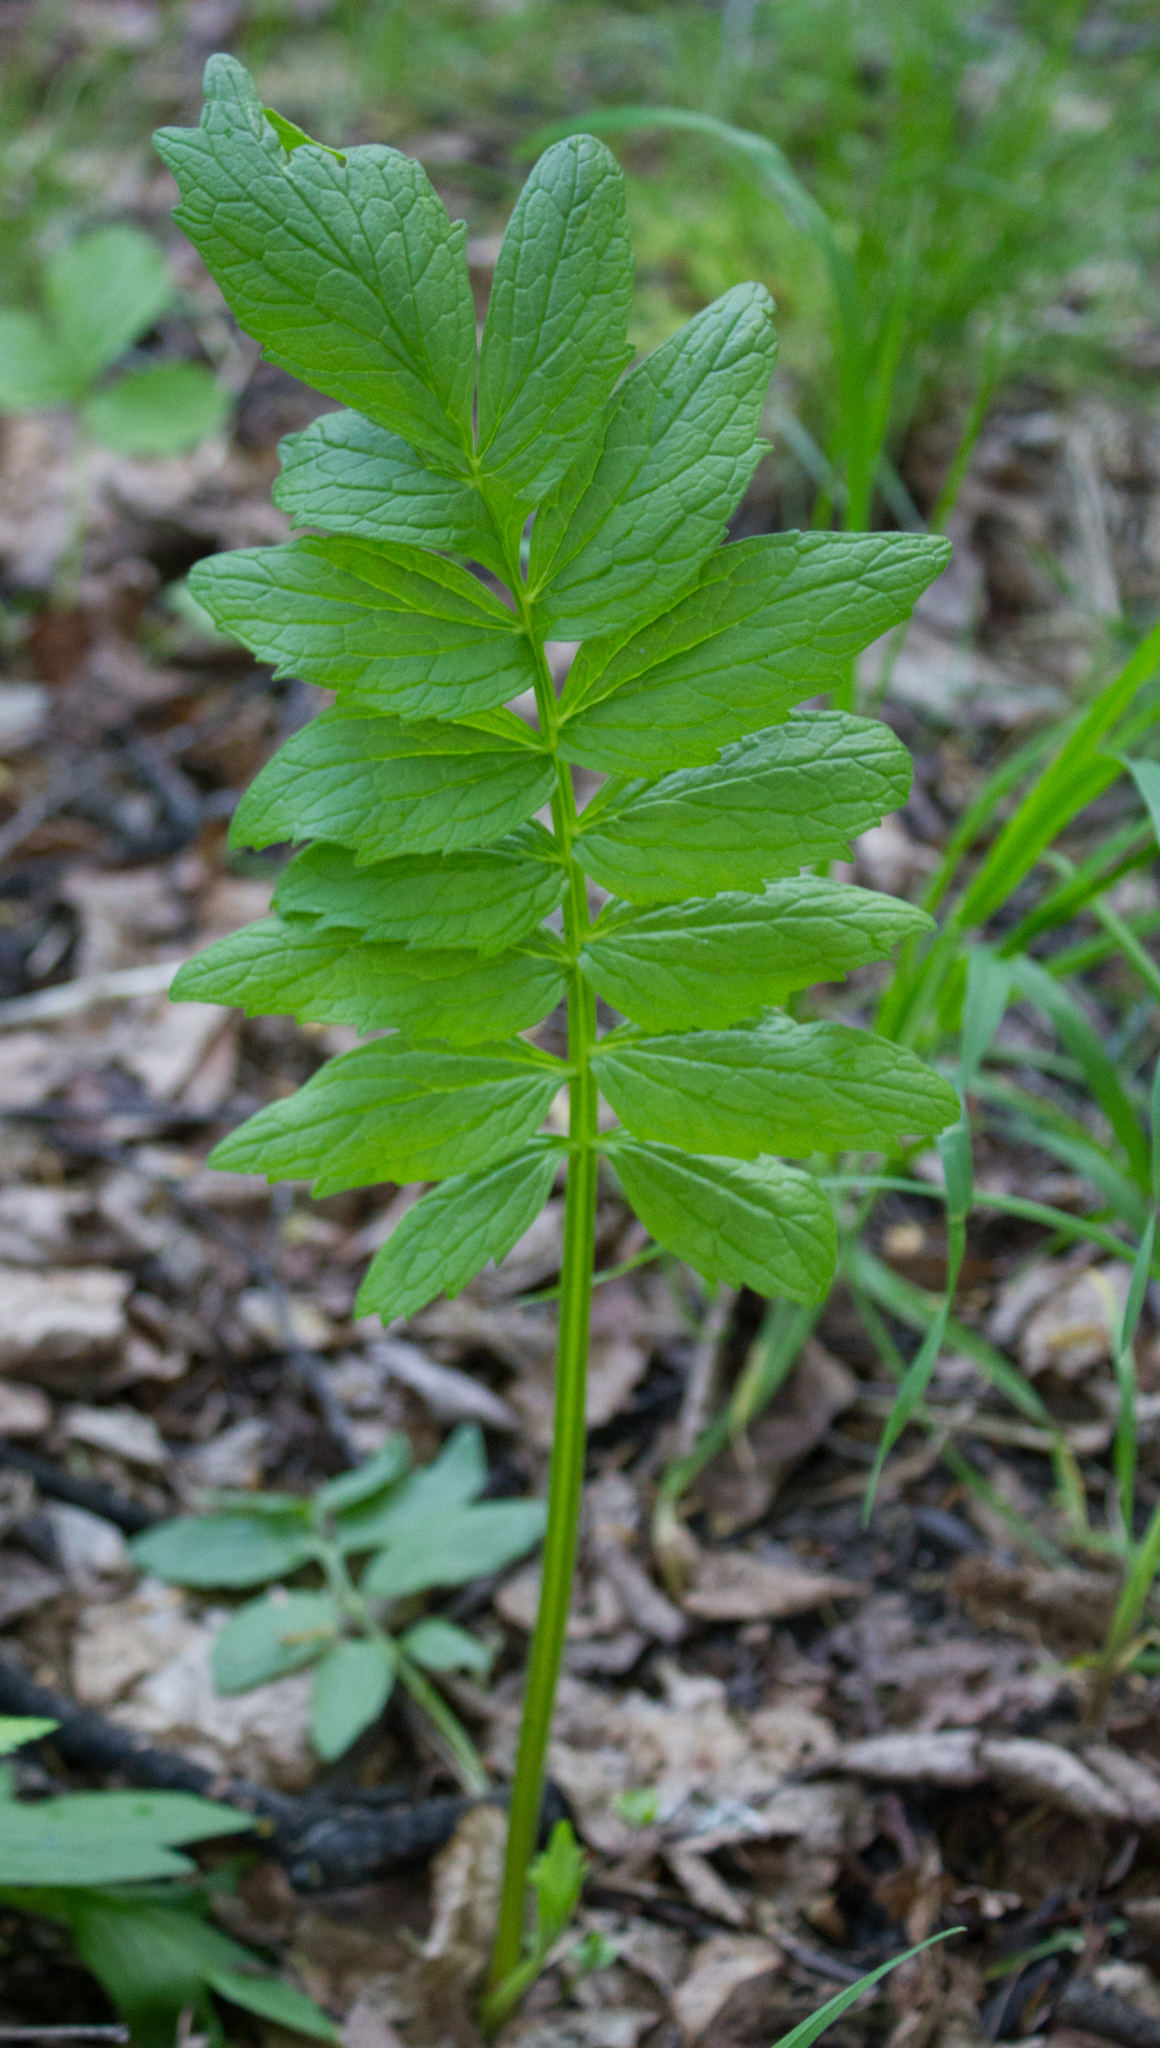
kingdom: Plantae
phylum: Tracheophyta
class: Magnoliopsida
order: Dipsacales
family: Caprifoliaceae
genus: Valeriana
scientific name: Valeriana officinalis
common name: Common valerian
